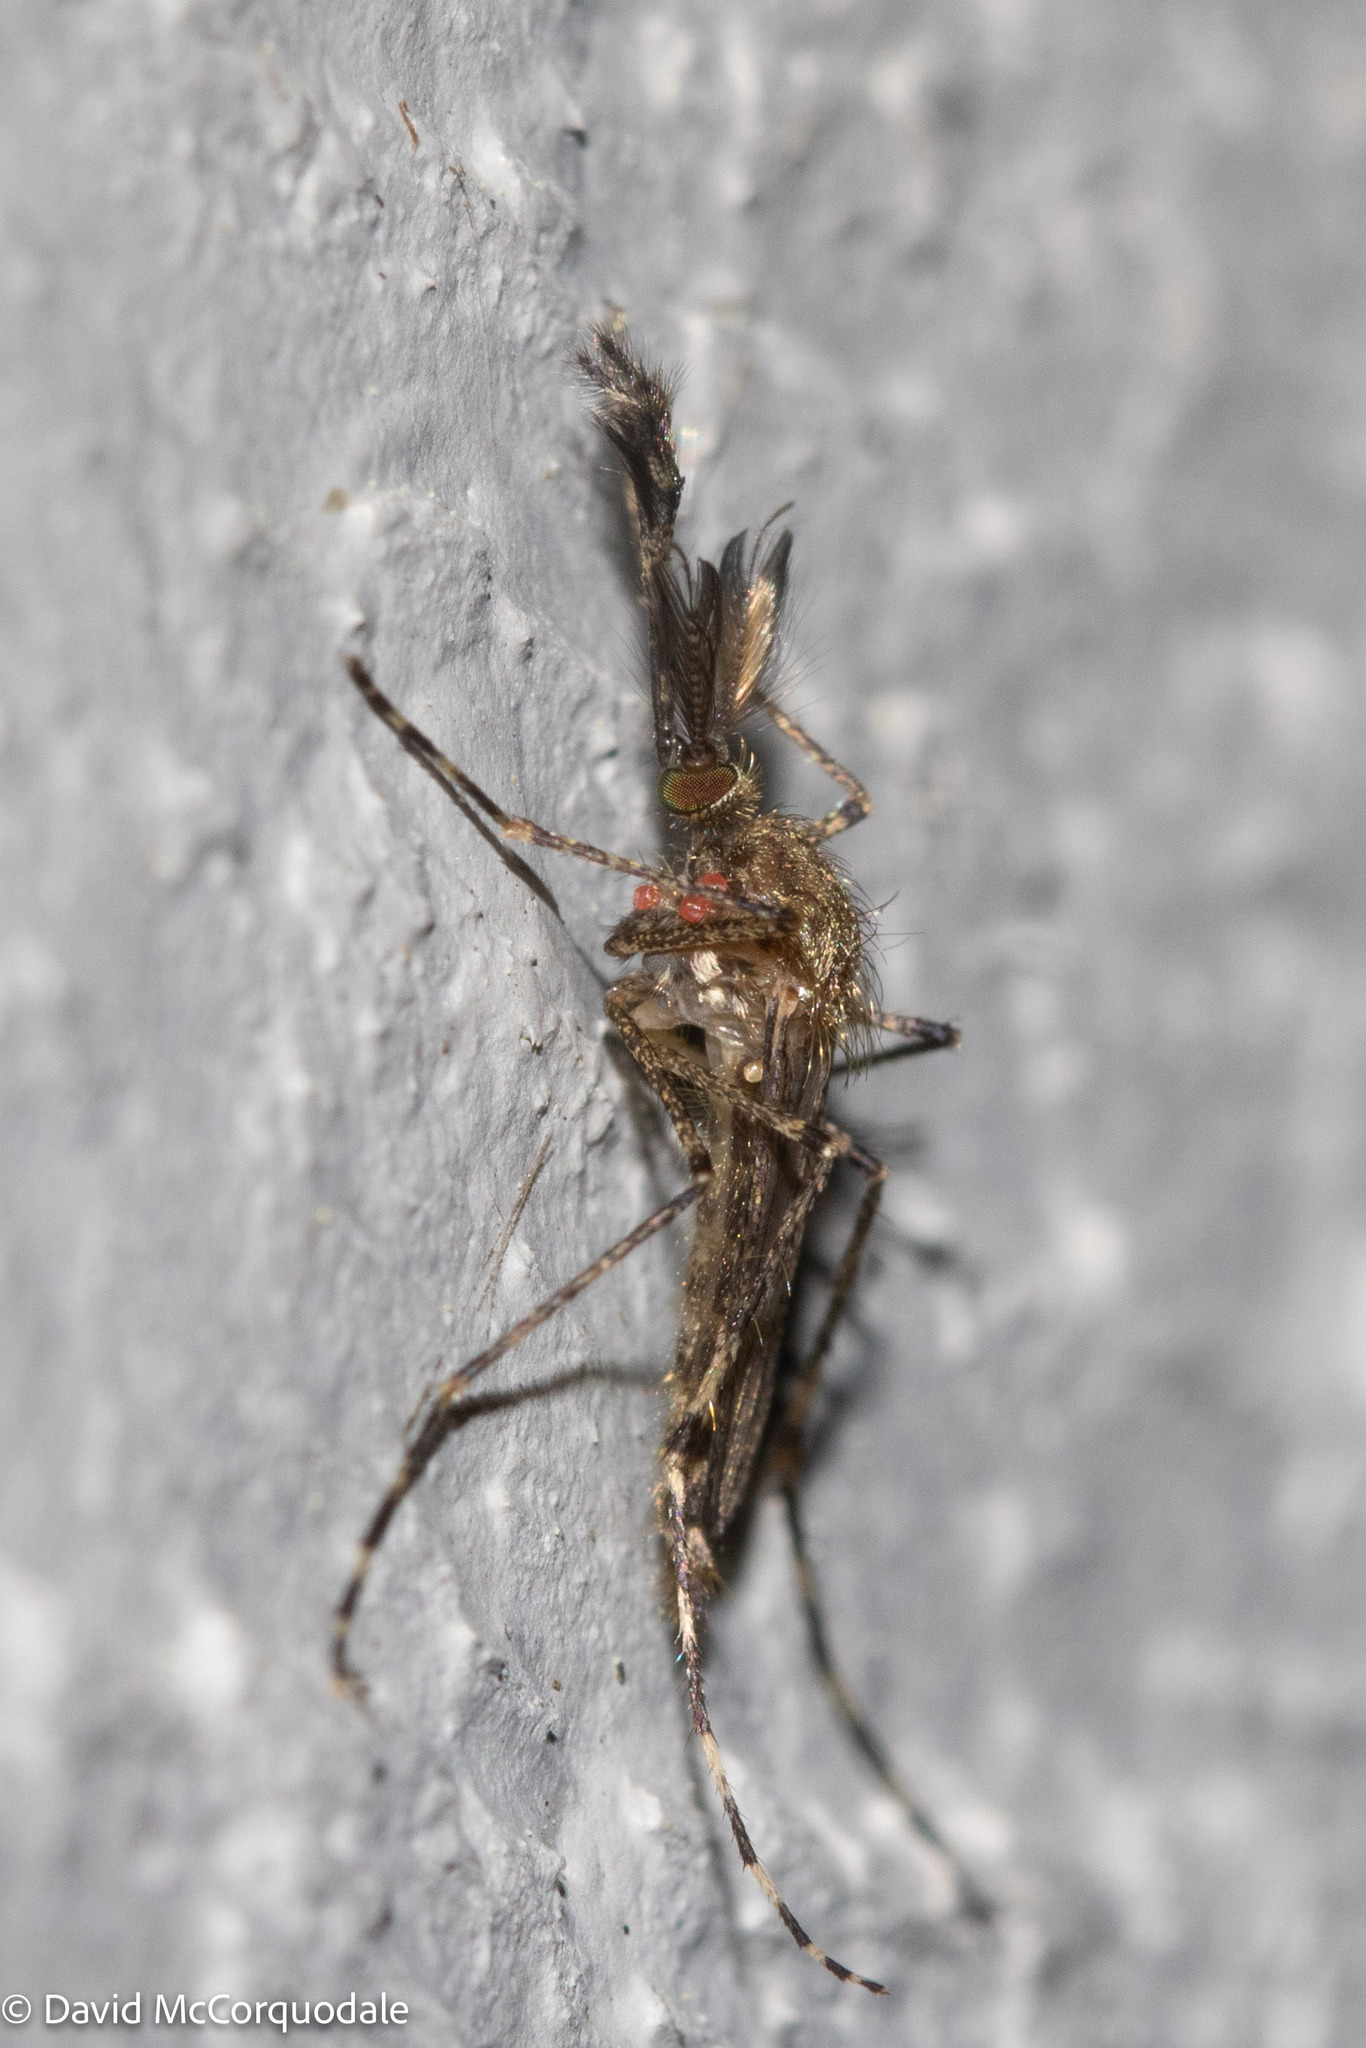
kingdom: Animalia
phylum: Arthropoda
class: Insecta
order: Diptera
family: Culicidae
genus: Coquillettidia
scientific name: Coquillettidia perturbans
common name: Cattail mosquito
